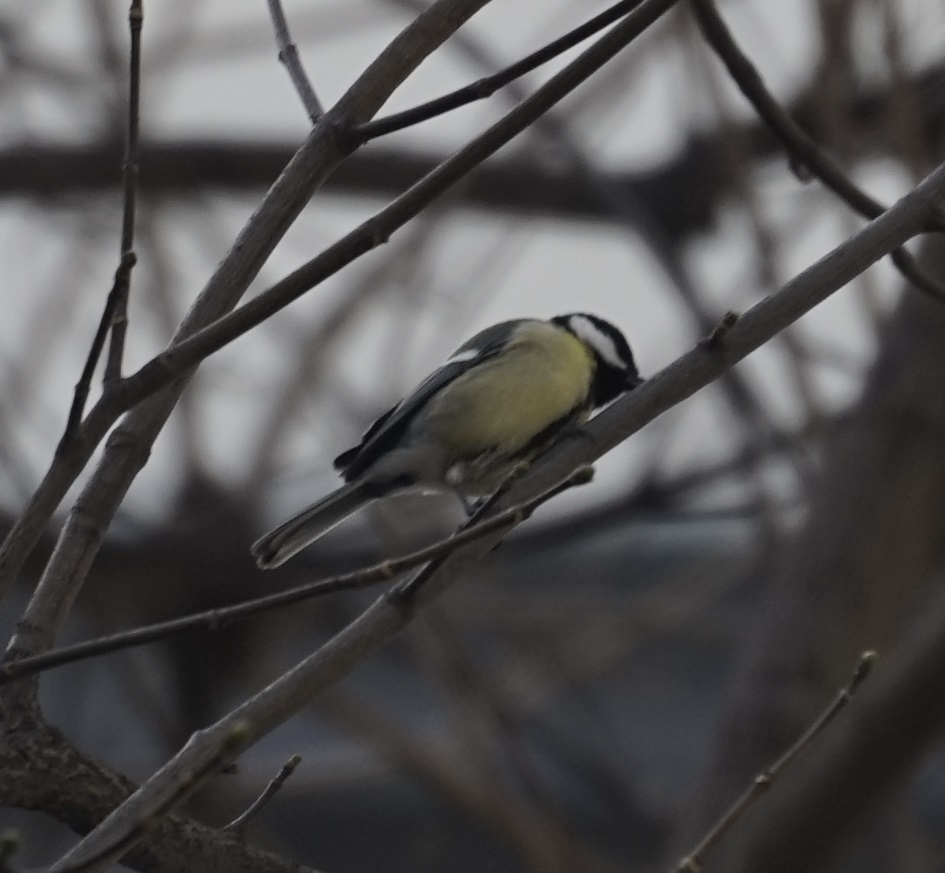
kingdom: Animalia
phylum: Chordata
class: Aves
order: Passeriformes
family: Paridae
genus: Parus
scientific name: Parus major
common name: Great tit
